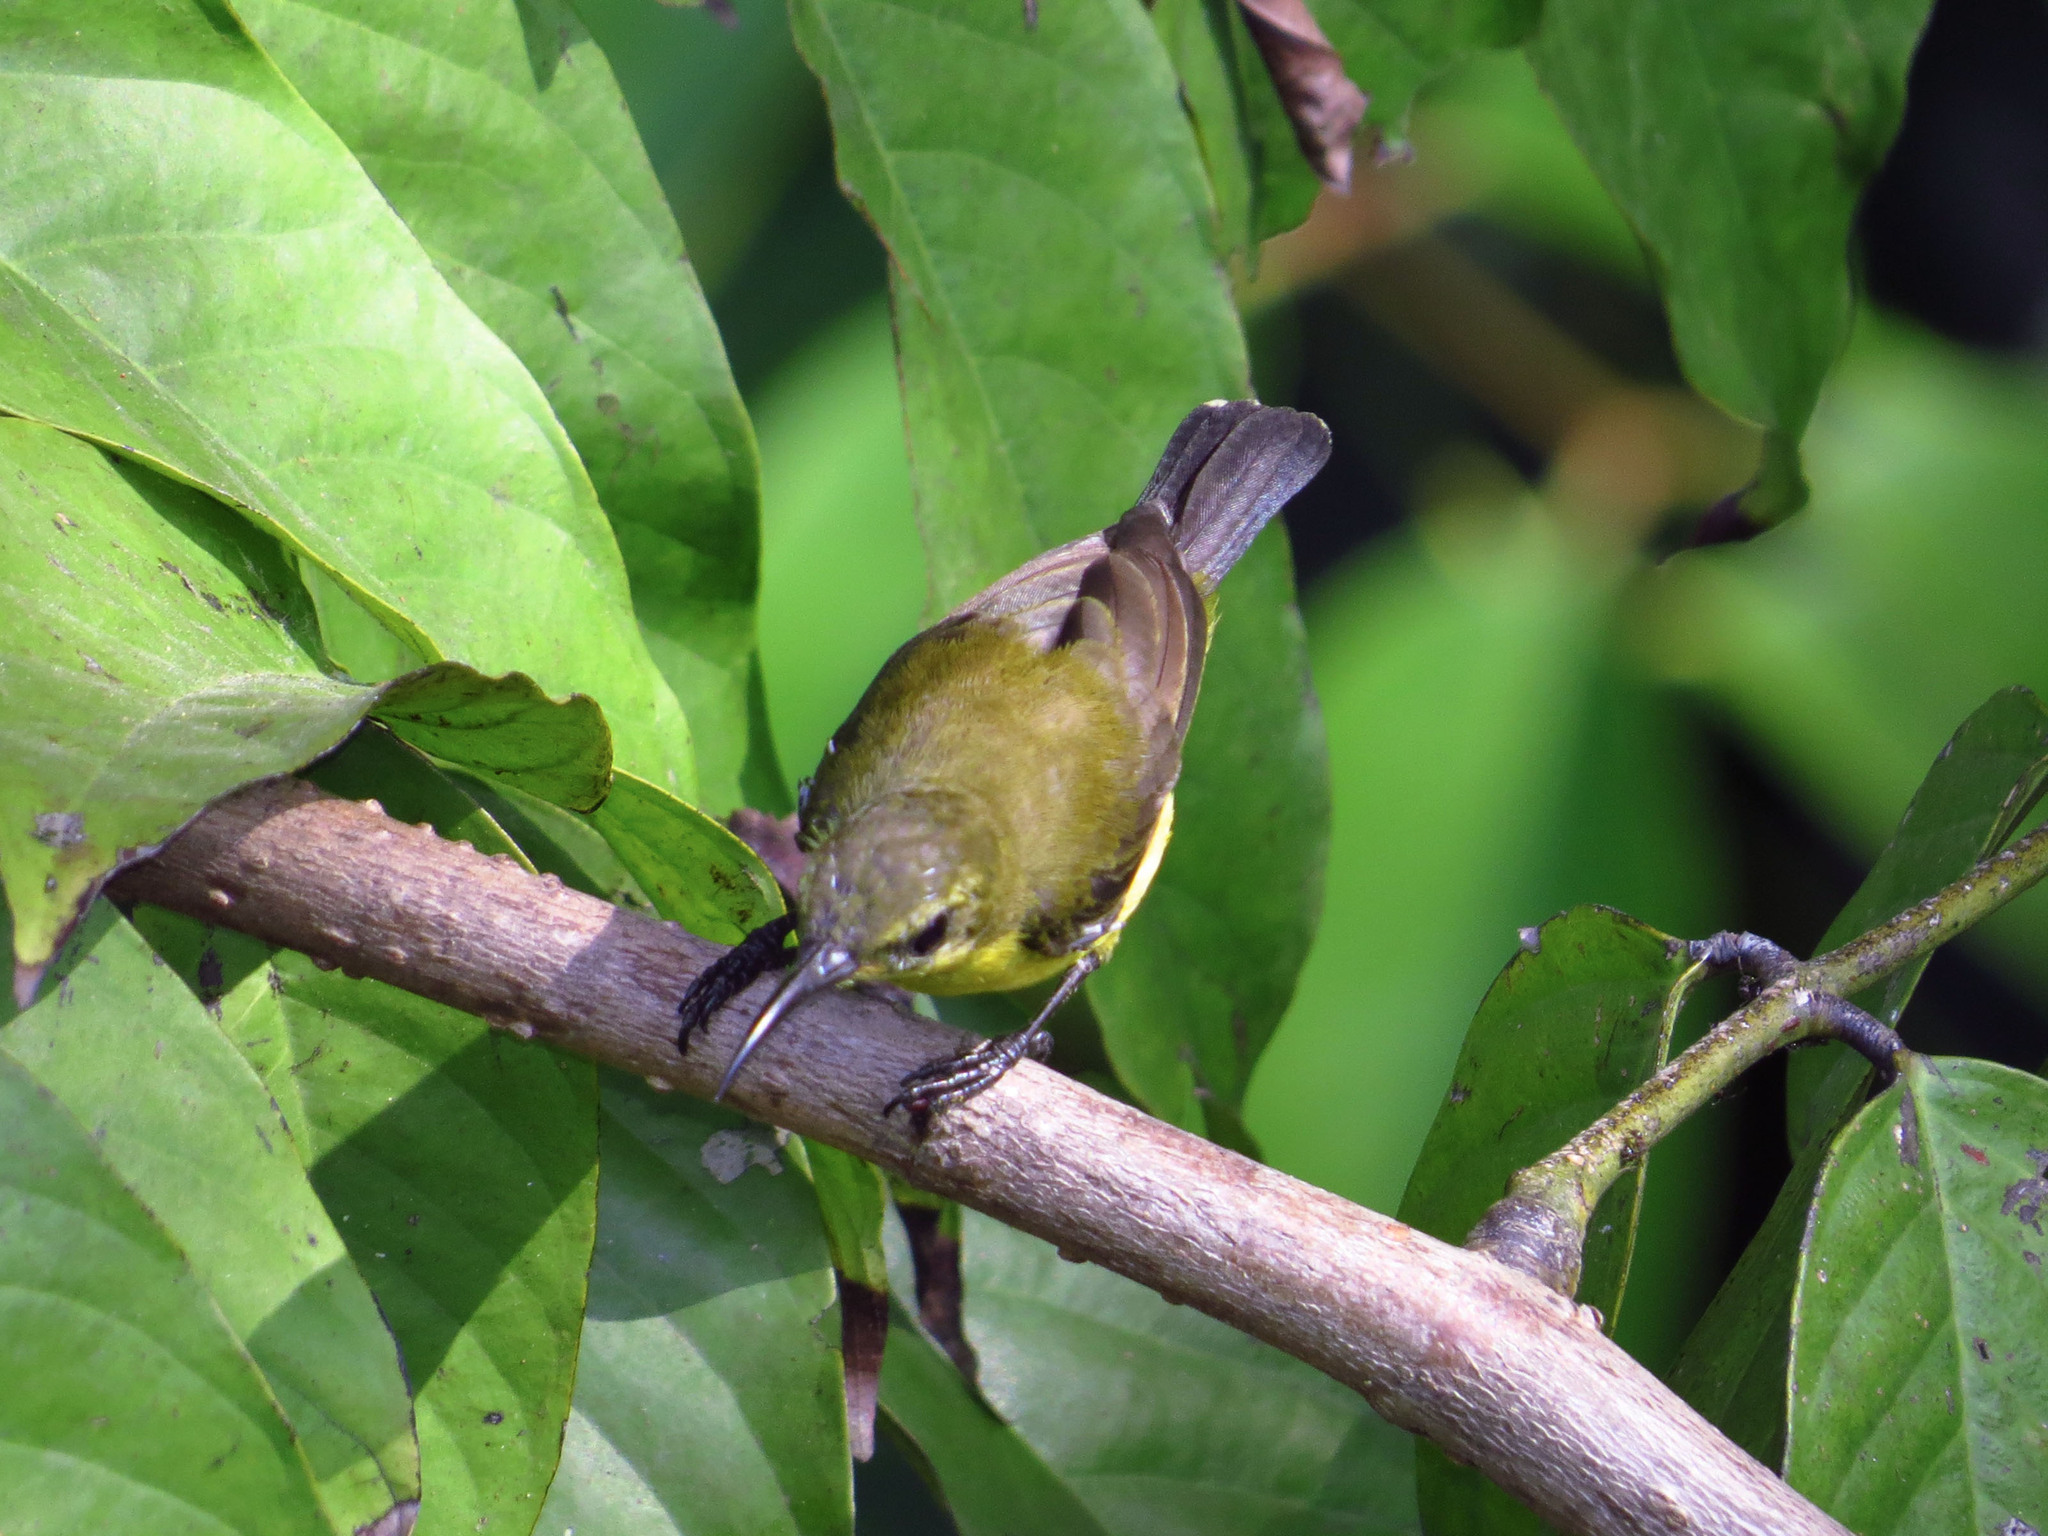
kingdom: Animalia
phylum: Chordata
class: Aves
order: Passeriformes
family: Nectariniidae
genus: Cinnyris
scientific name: Cinnyris
